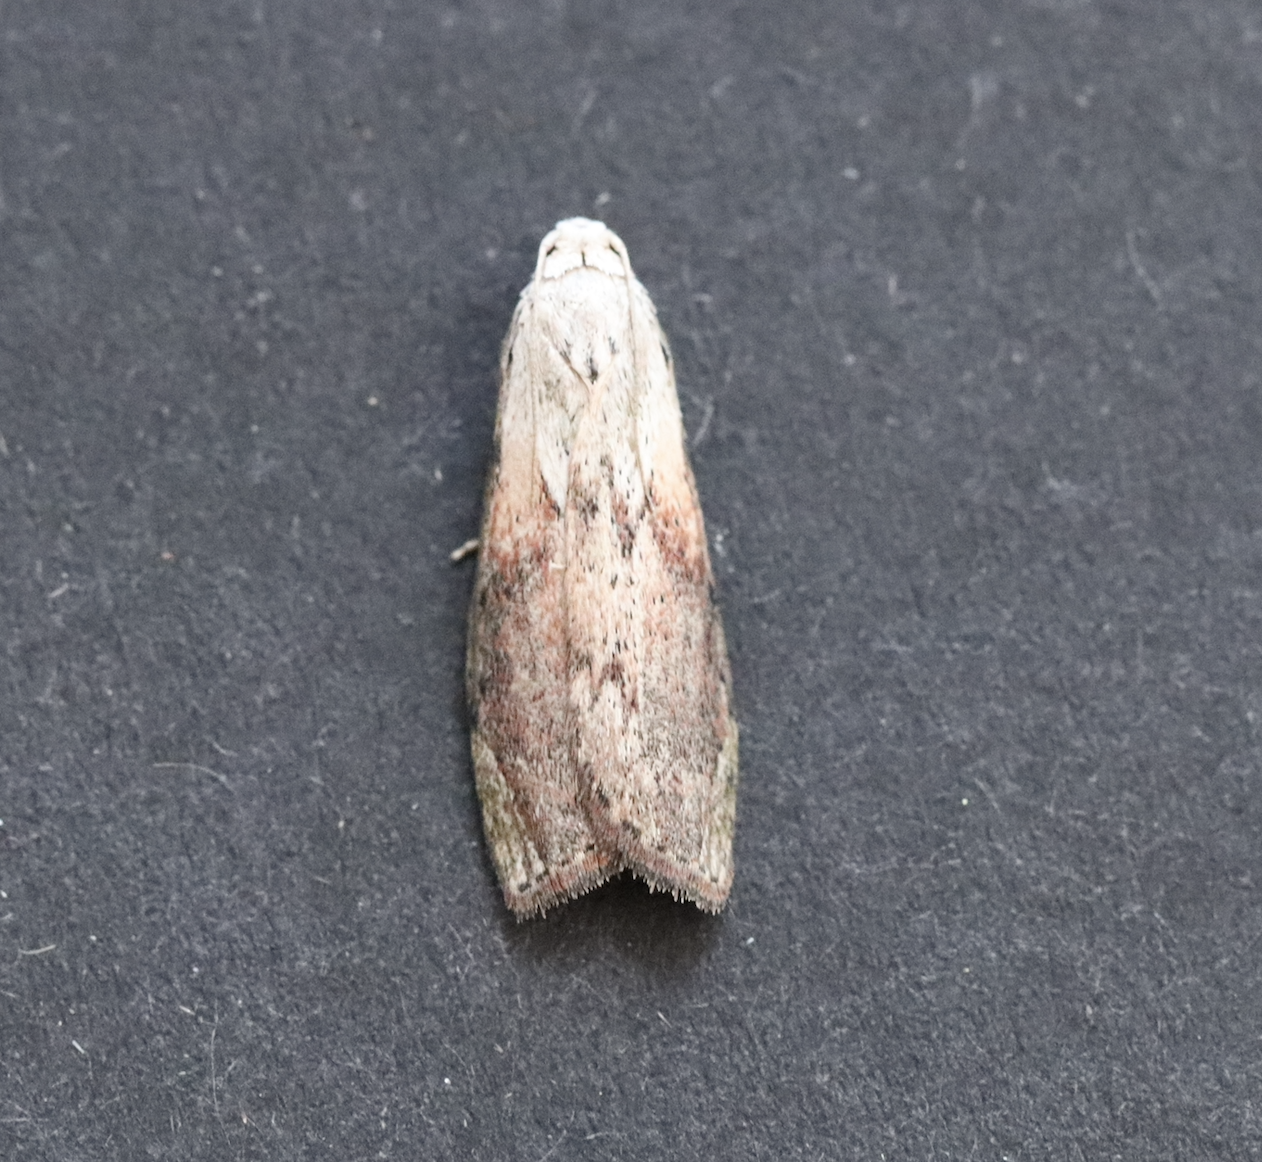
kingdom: Animalia
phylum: Arthropoda
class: Insecta
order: Lepidoptera
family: Pyralidae
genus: Aphomia
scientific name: Aphomia sociella
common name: Bee moth
